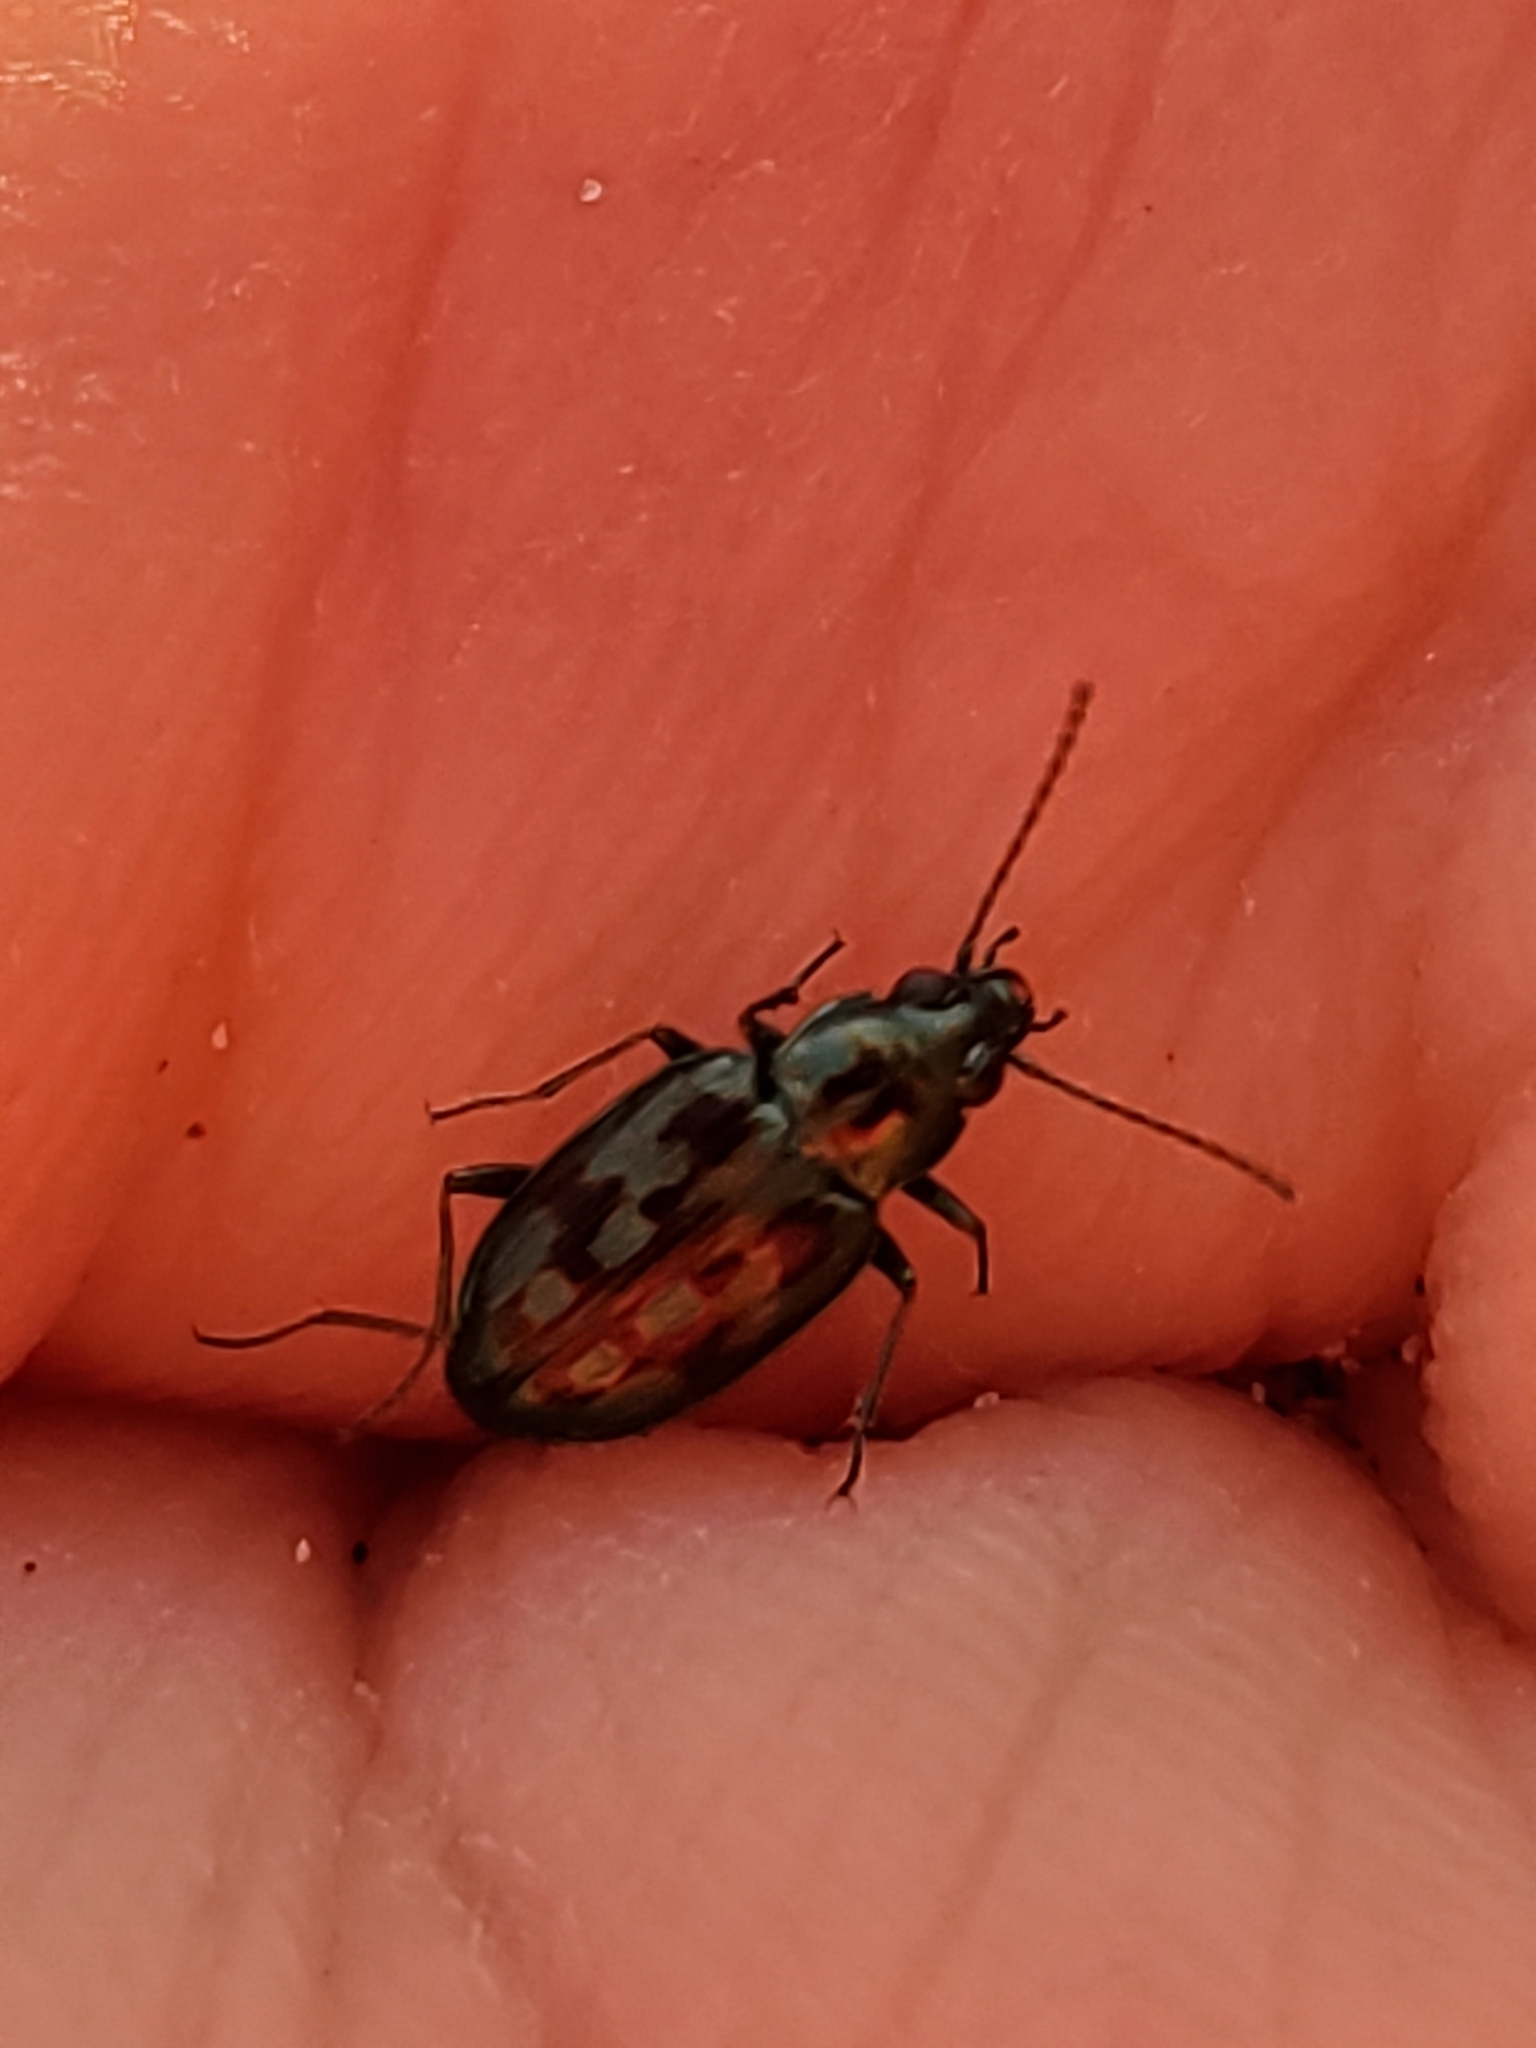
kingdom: Animalia
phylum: Arthropoda
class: Insecta
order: Coleoptera
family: Carabidae
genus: Bembidion
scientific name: Bembidion zephyrum
